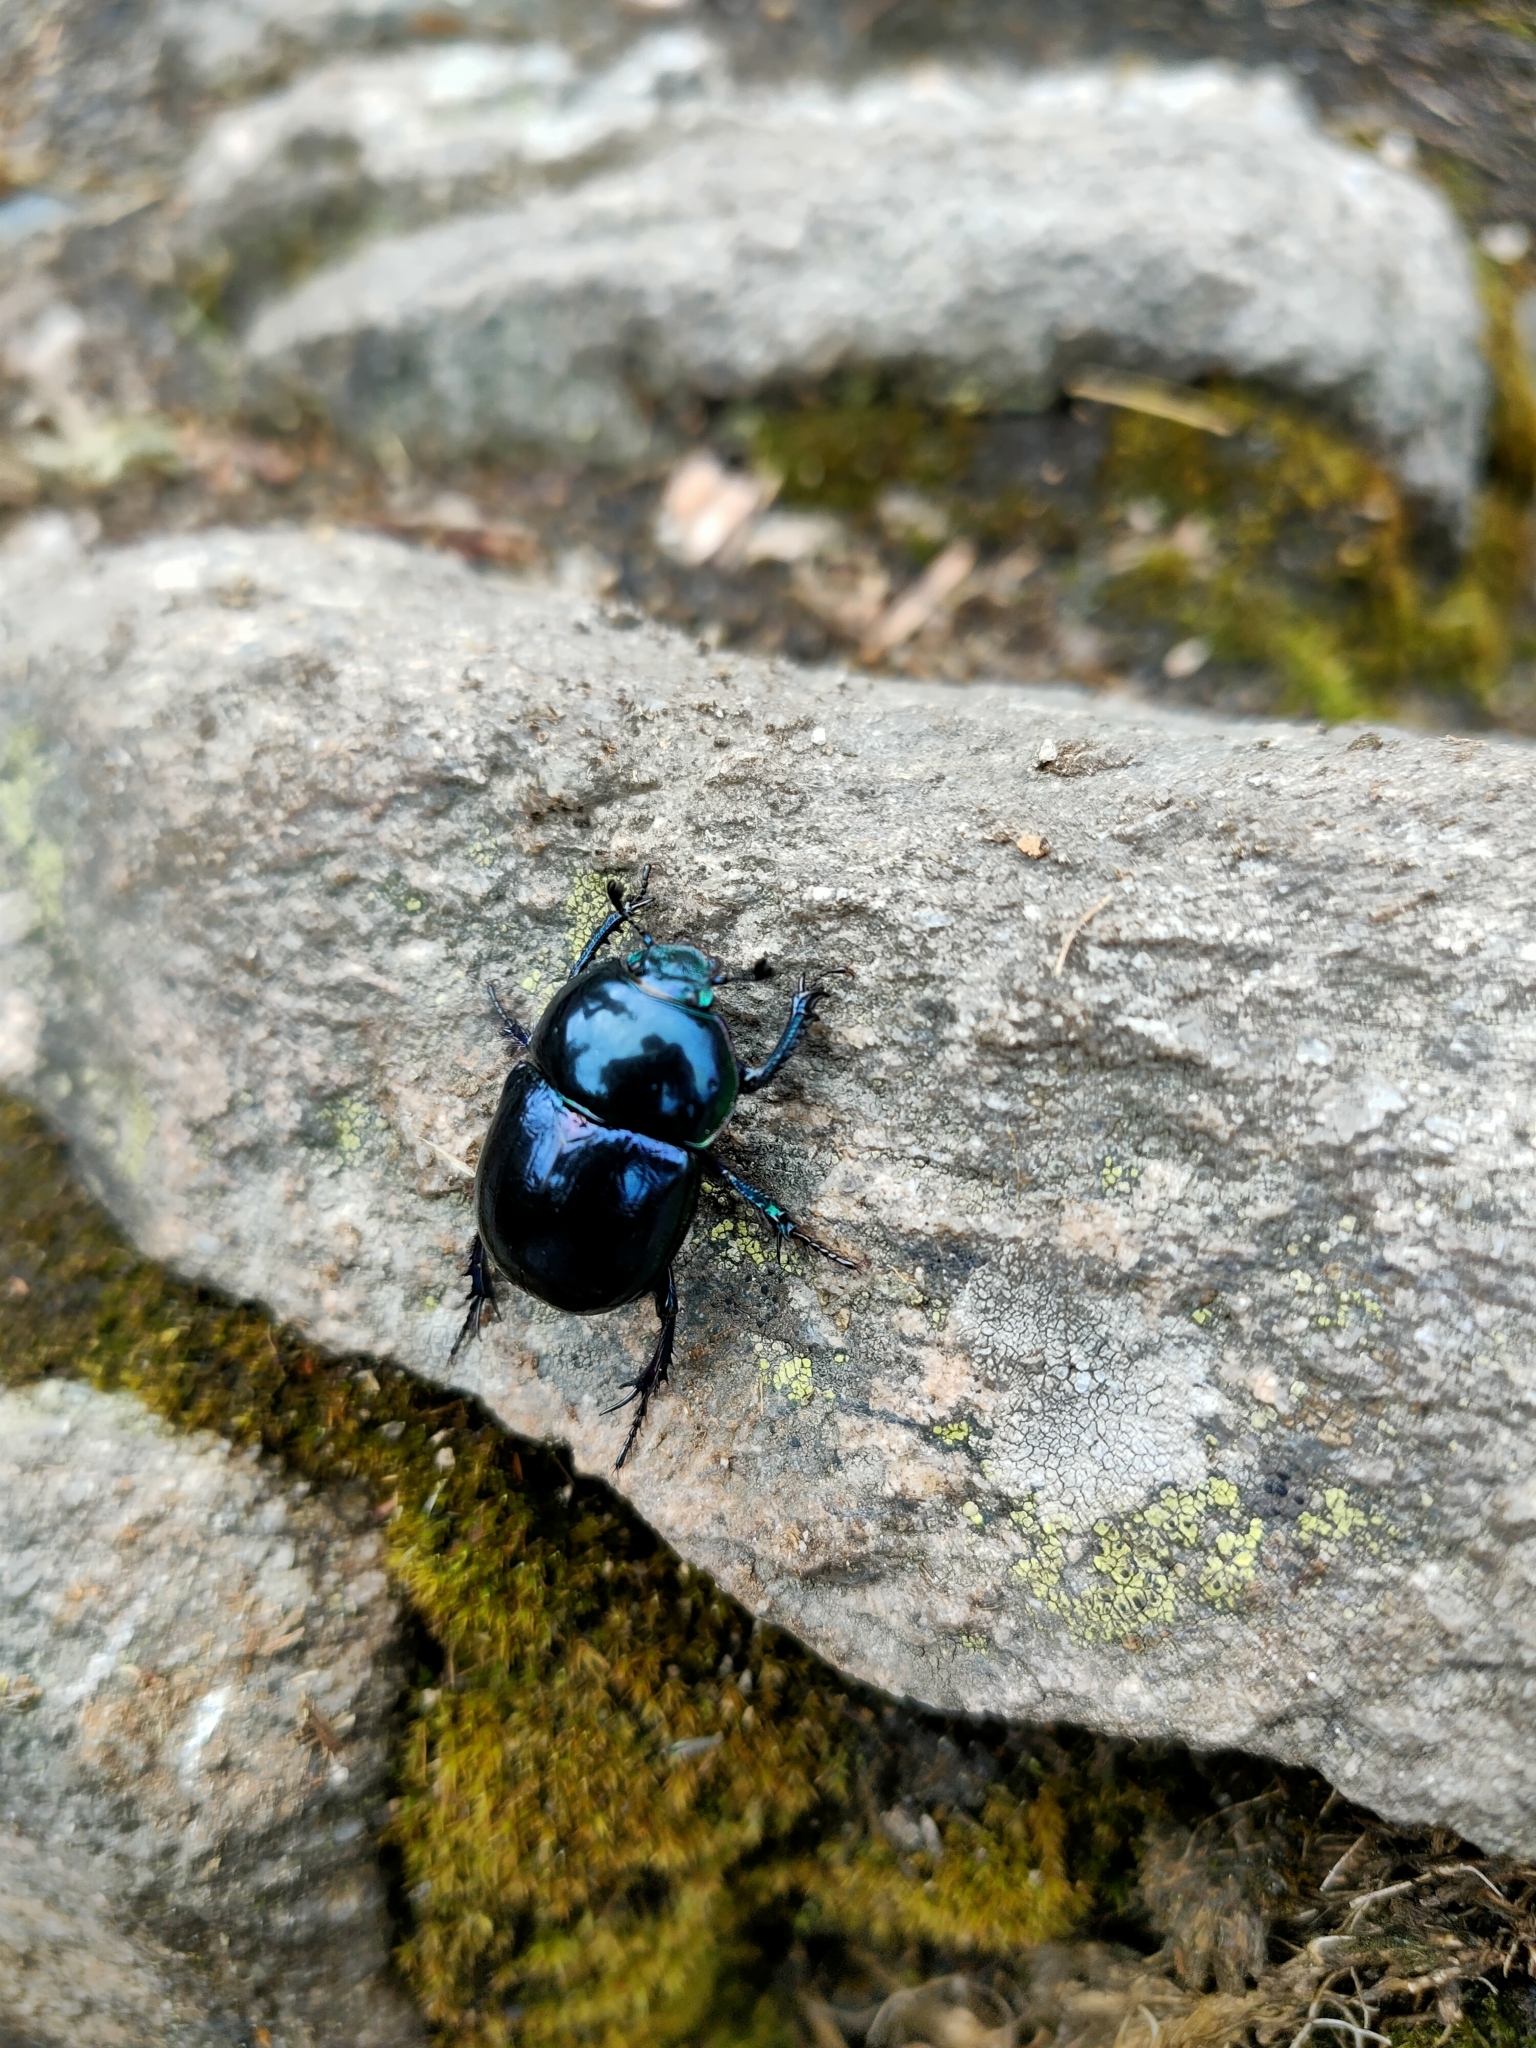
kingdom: Animalia
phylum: Arthropoda
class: Insecta
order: Coleoptera
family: Geotrupidae
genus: Trypocopris
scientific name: Trypocopris pyrenaeus
